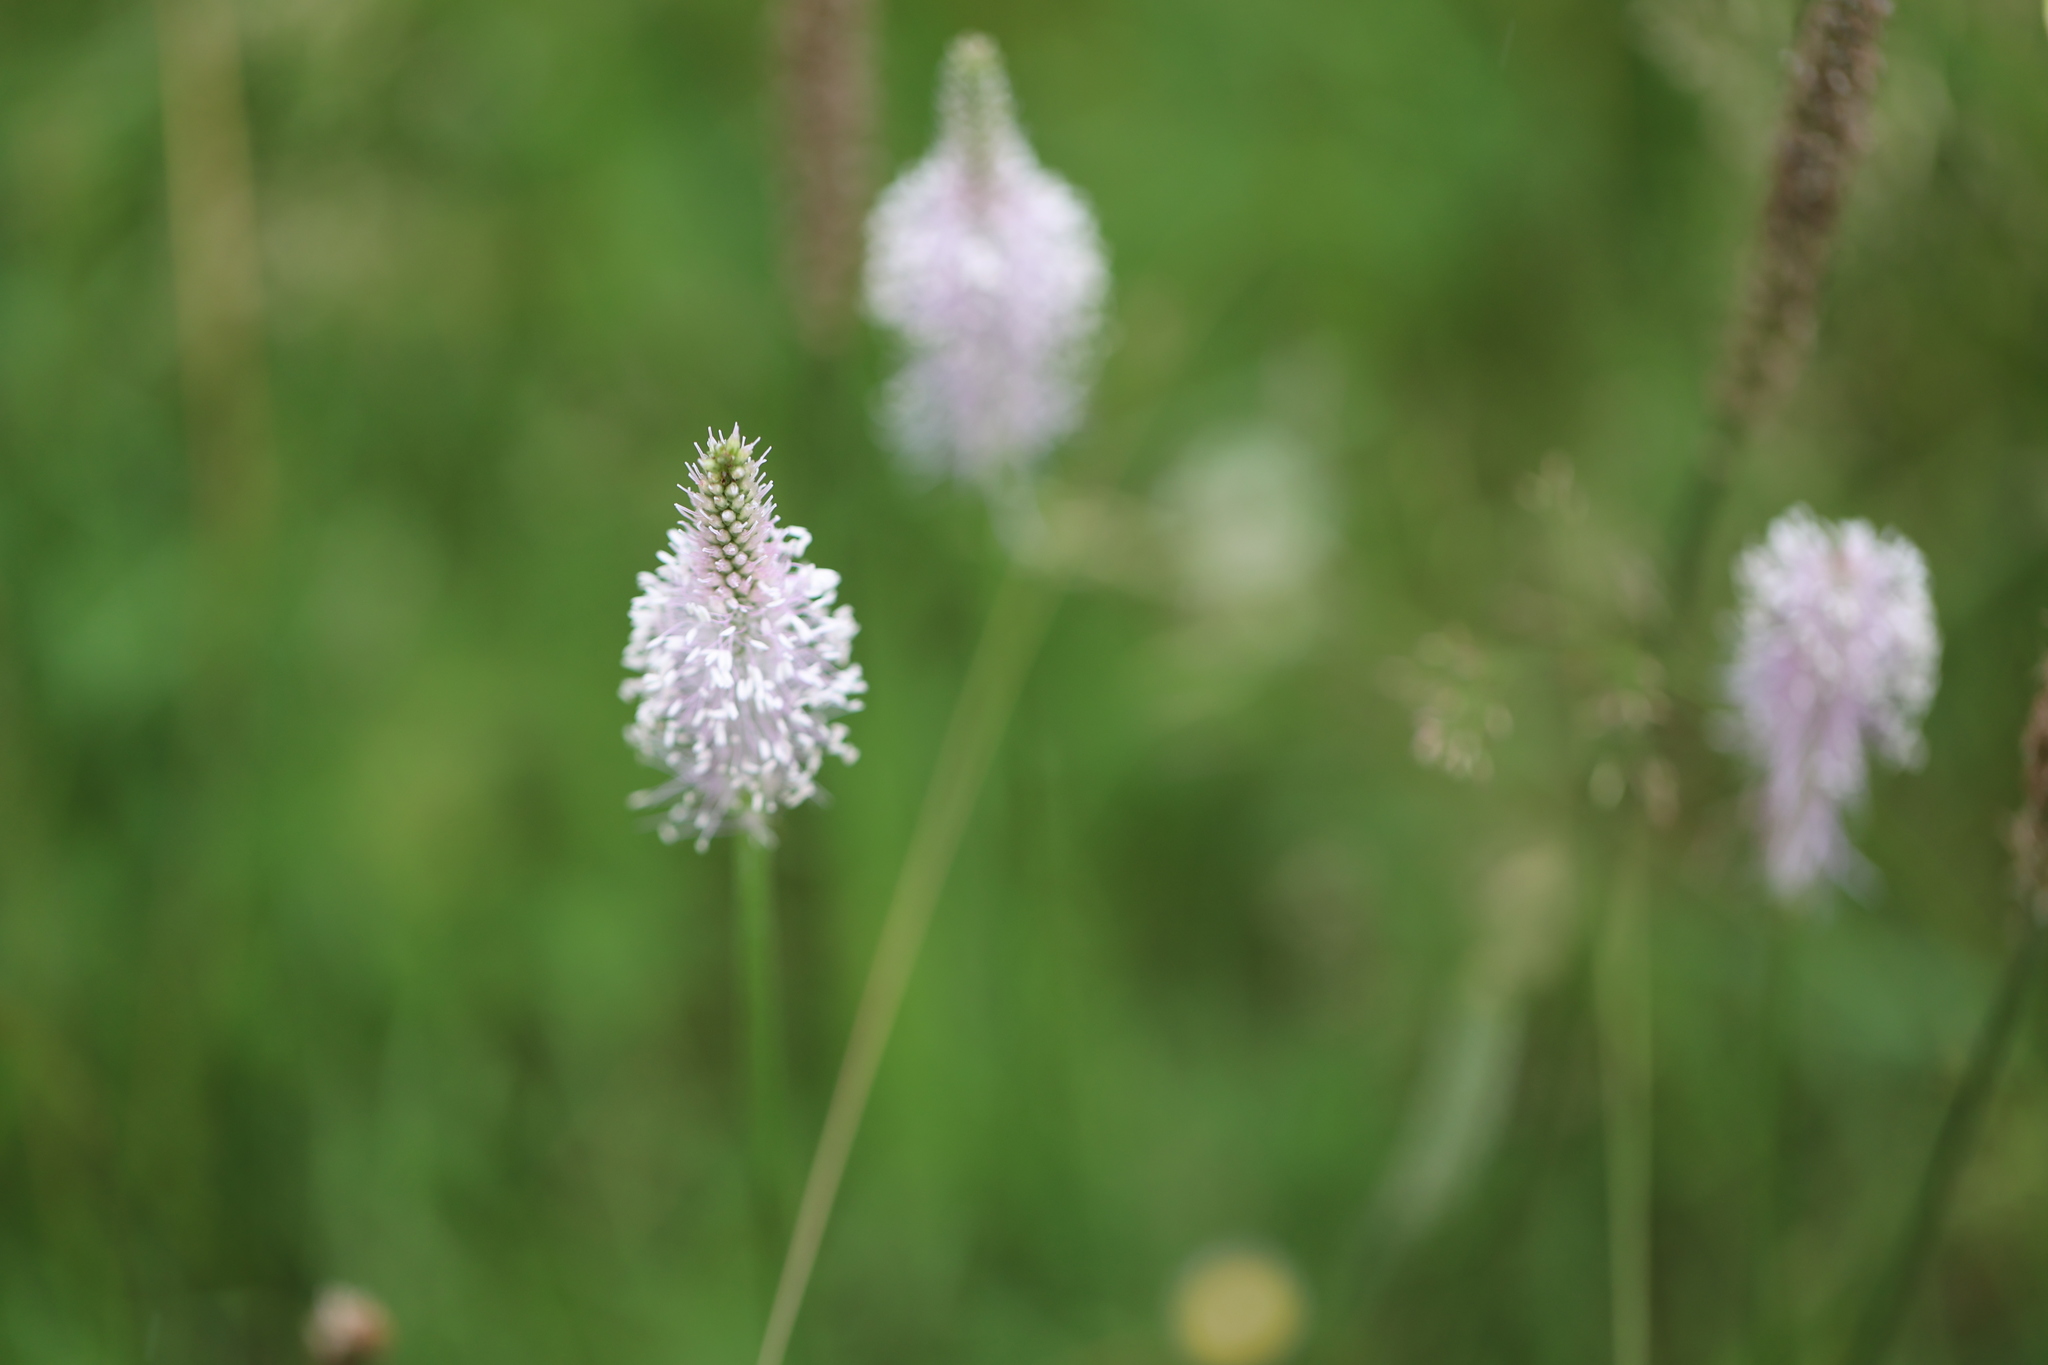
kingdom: Plantae
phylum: Tracheophyta
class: Magnoliopsida
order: Lamiales
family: Plantaginaceae
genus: Plantago
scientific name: Plantago media
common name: Hoary plantain
